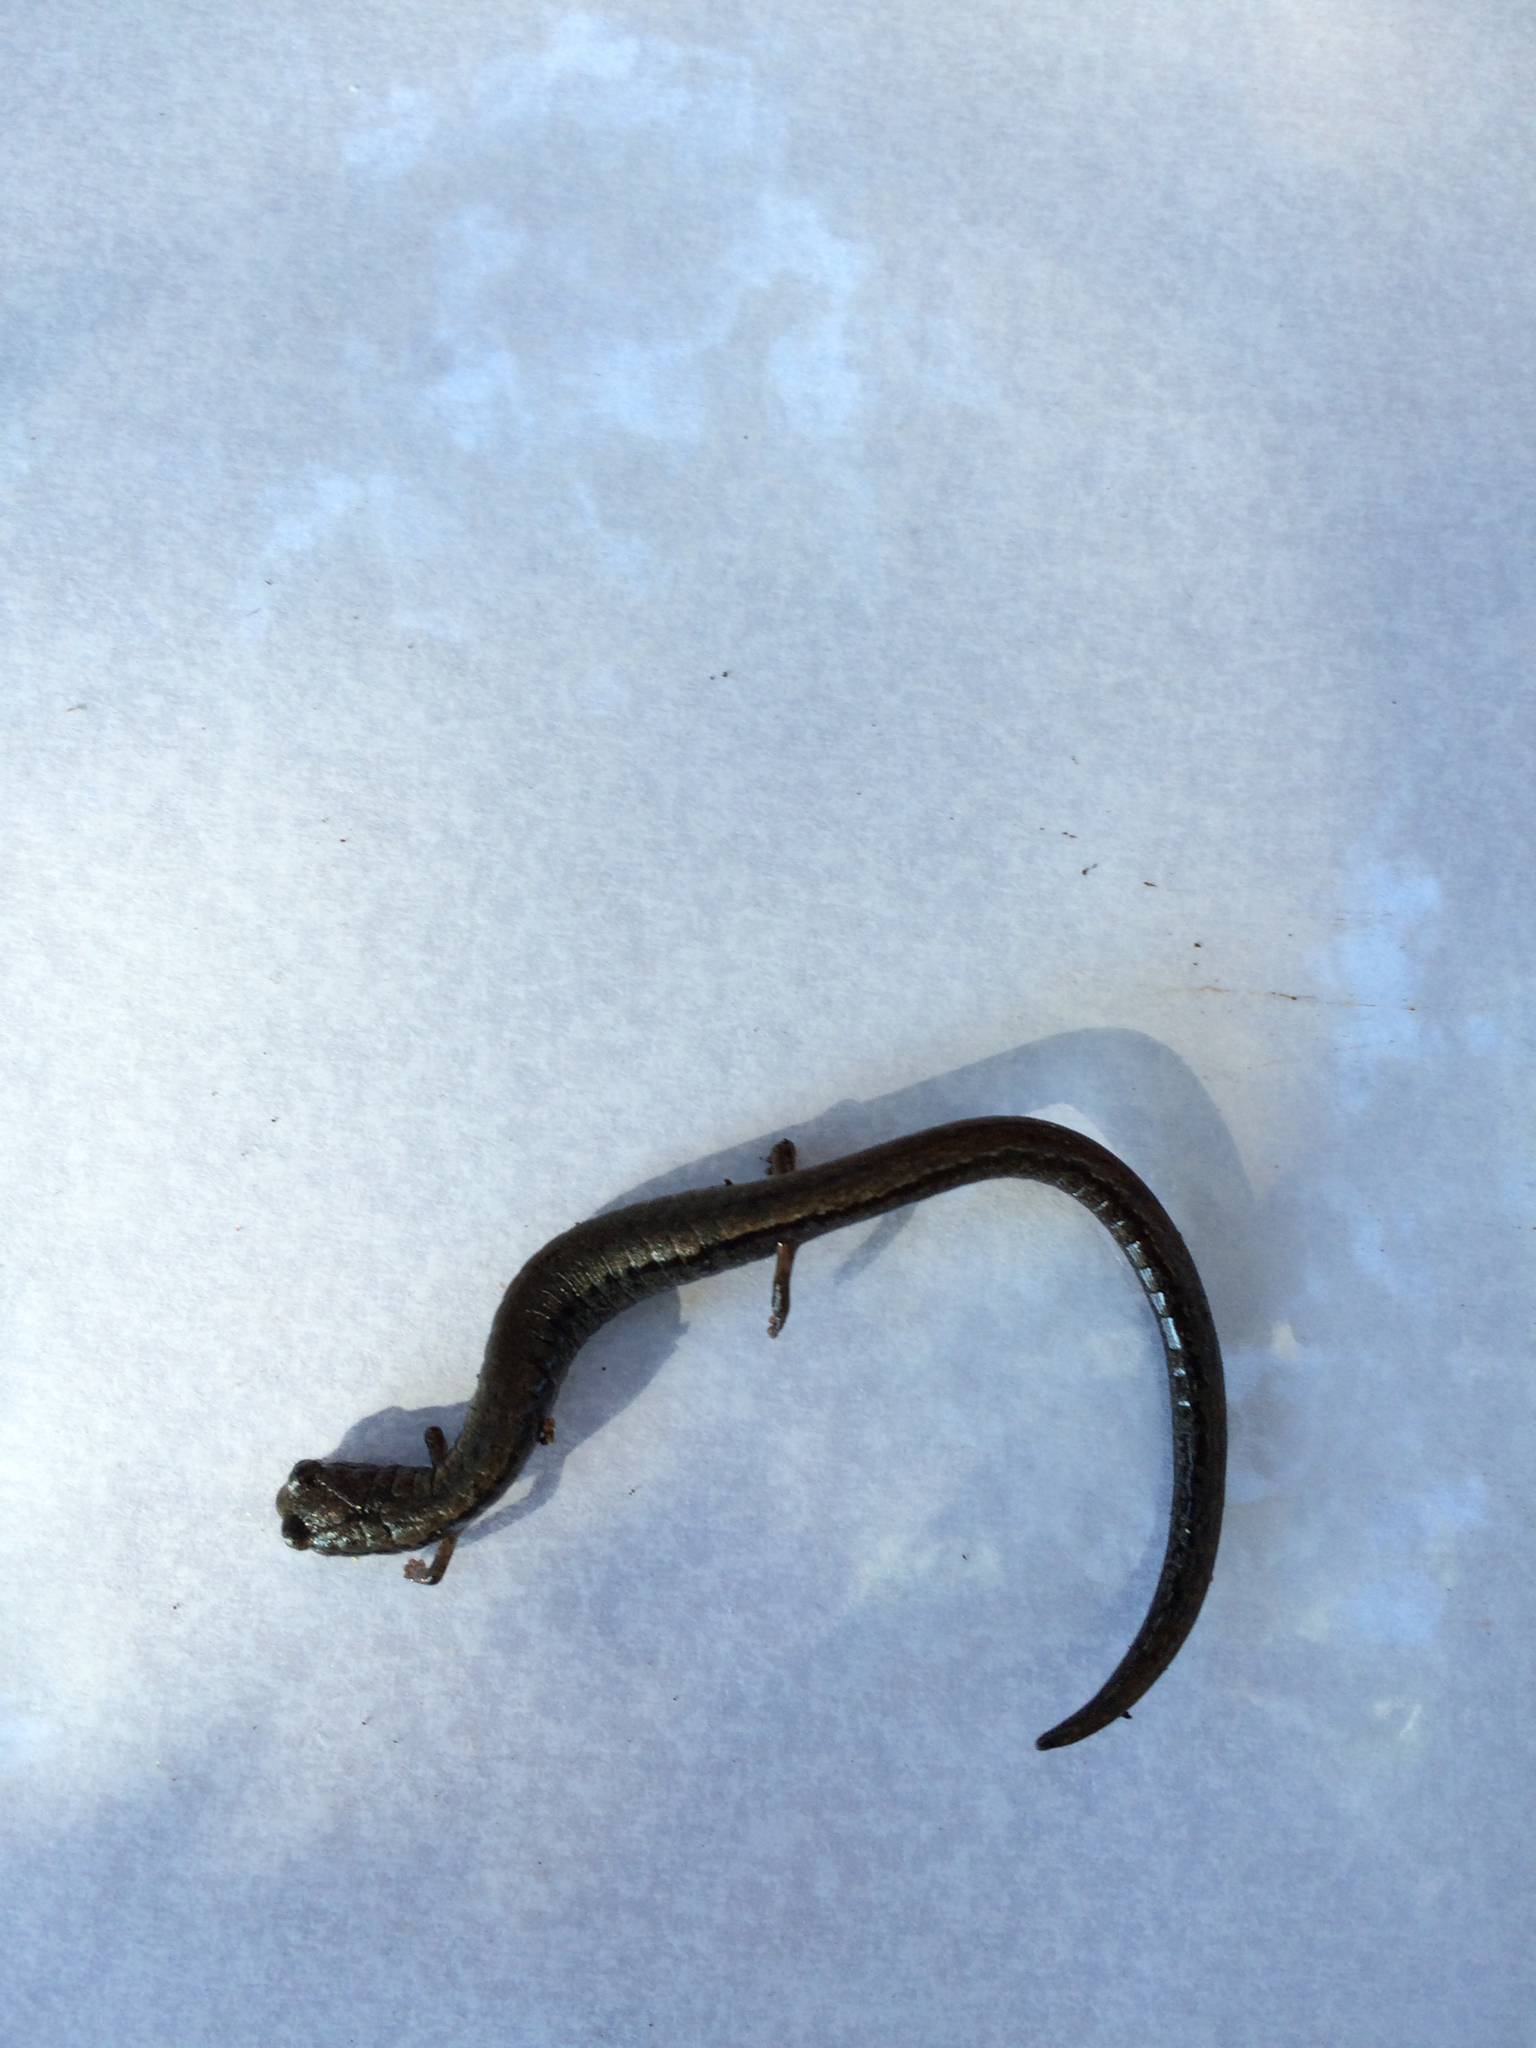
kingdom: Animalia
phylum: Chordata
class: Amphibia
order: Caudata
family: Plethodontidae
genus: Batrachoseps
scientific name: Batrachoseps attenuatus
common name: California slender salamander
